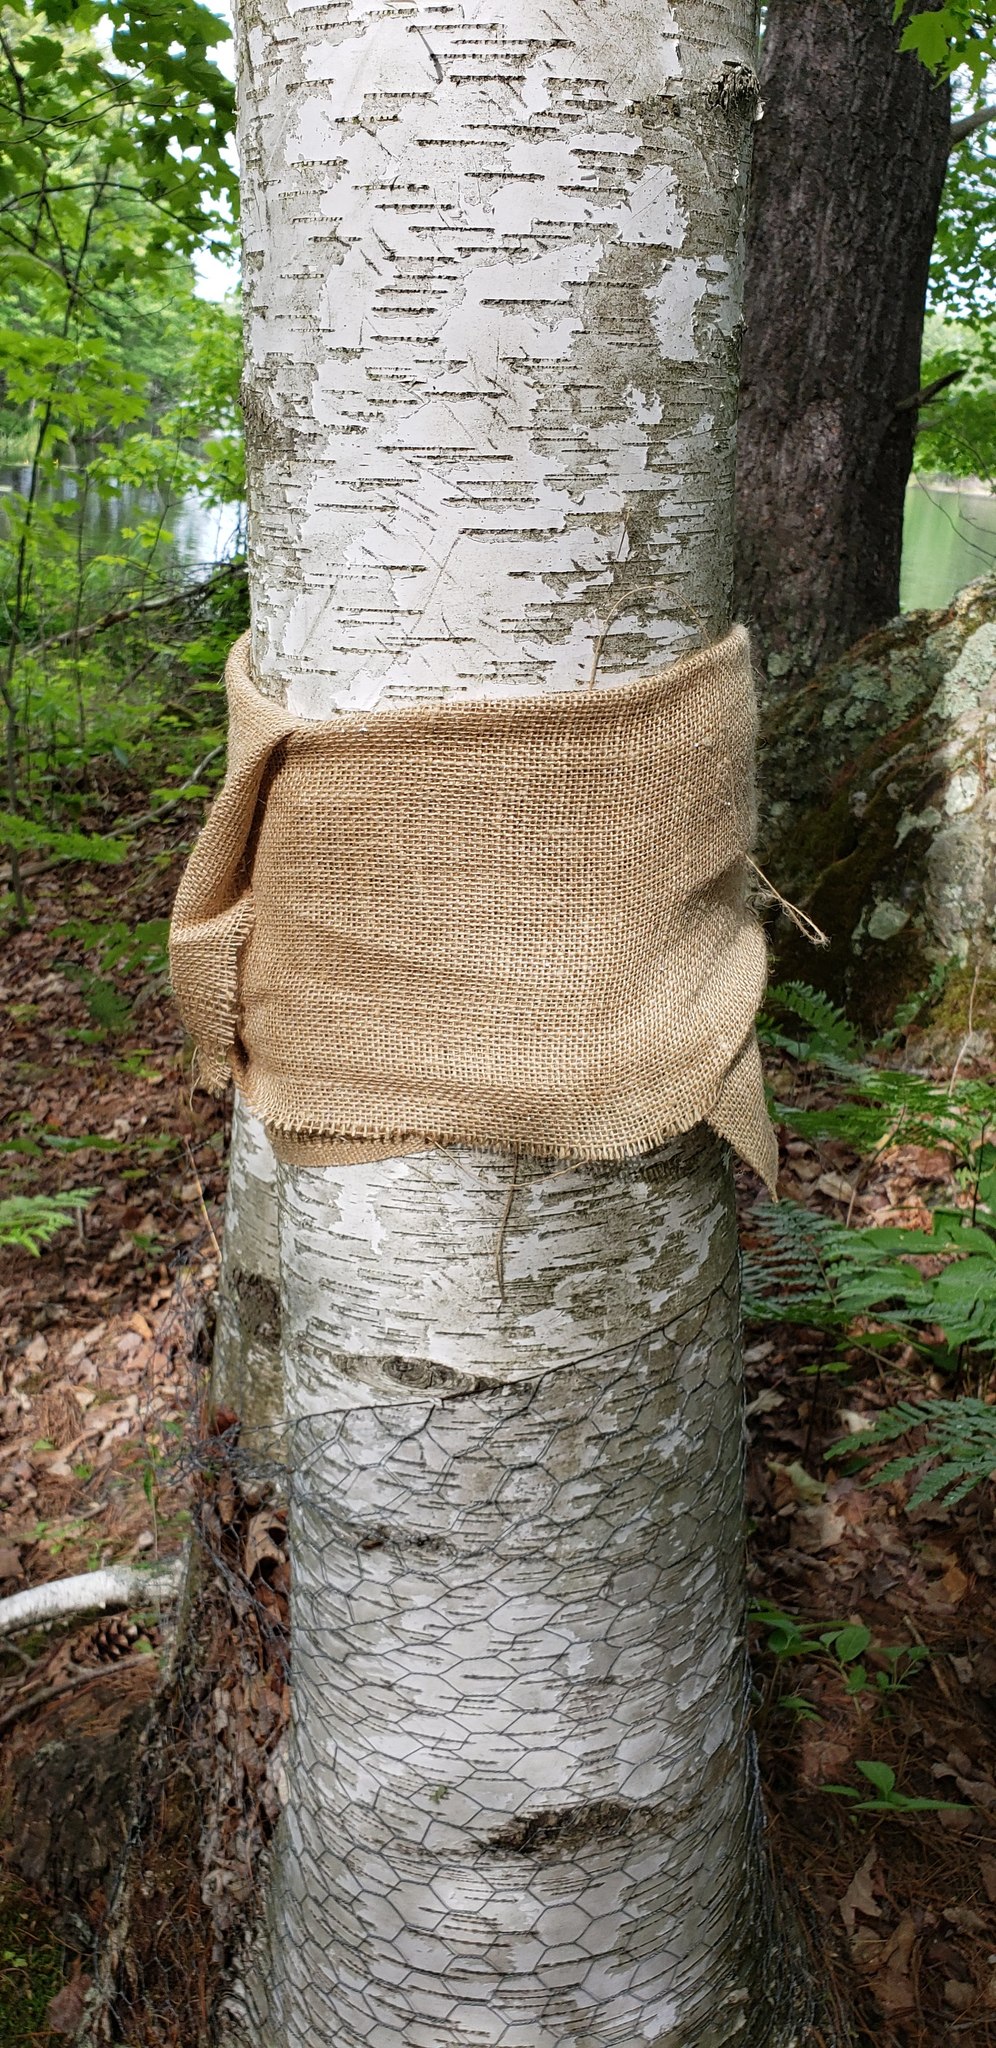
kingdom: Plantae
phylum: Tracheophyta
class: Magnoliopsida
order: Fagales
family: Betulaceae
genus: Betula
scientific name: Betula populifolia
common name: Fire birch
